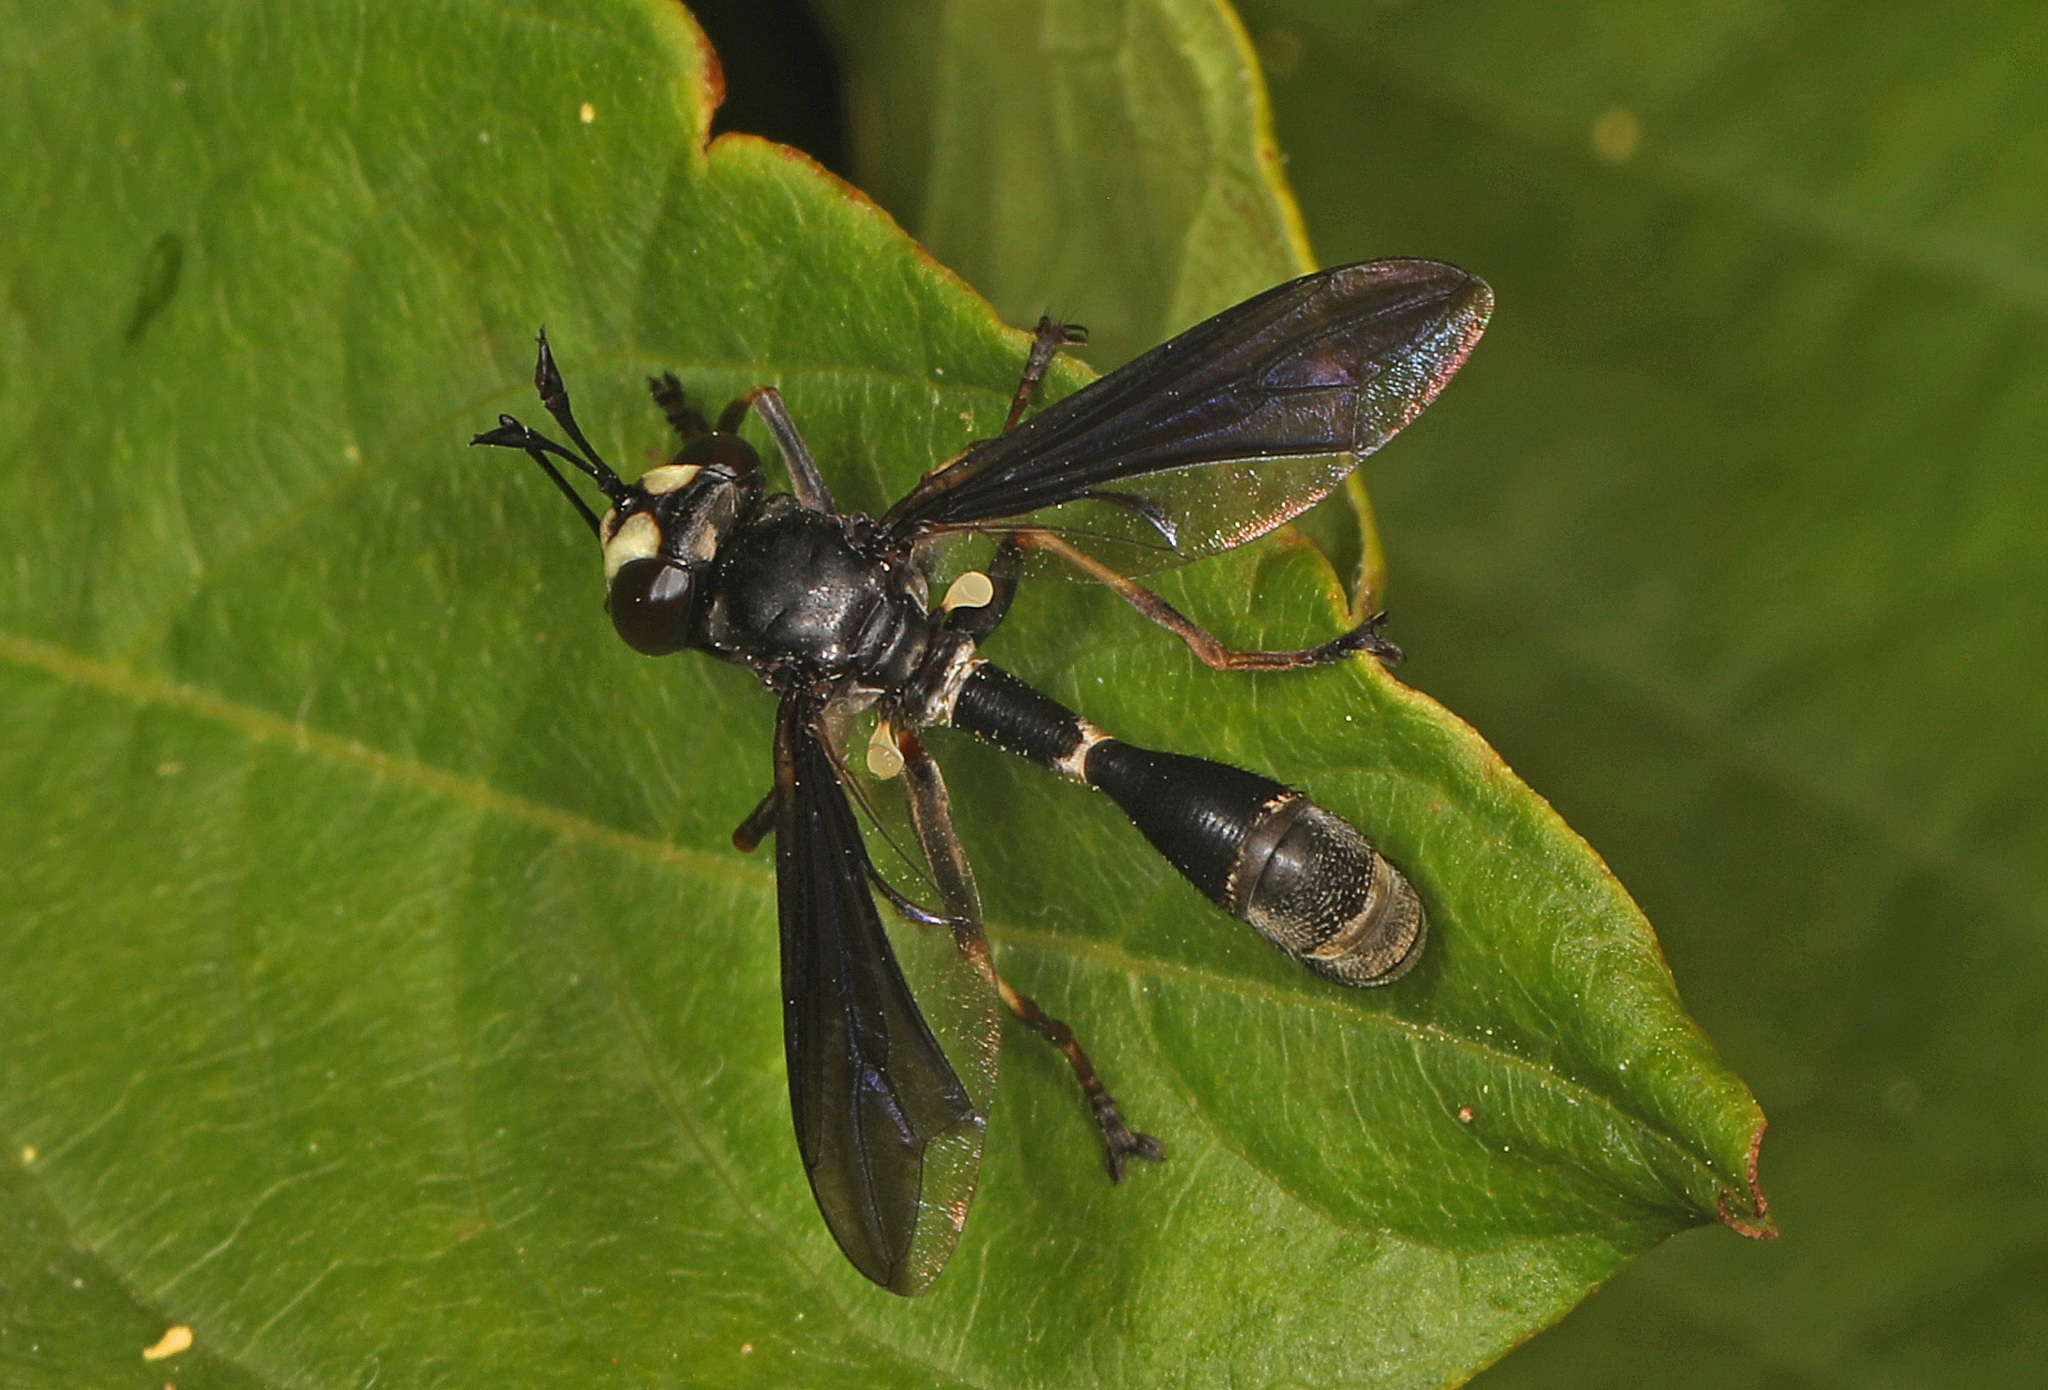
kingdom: Animalia
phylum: Arthropoda
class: Insecta
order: Diptera
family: Conopidae
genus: Physocephala
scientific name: Physocephala tibialis
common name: Common eastern physocephala
